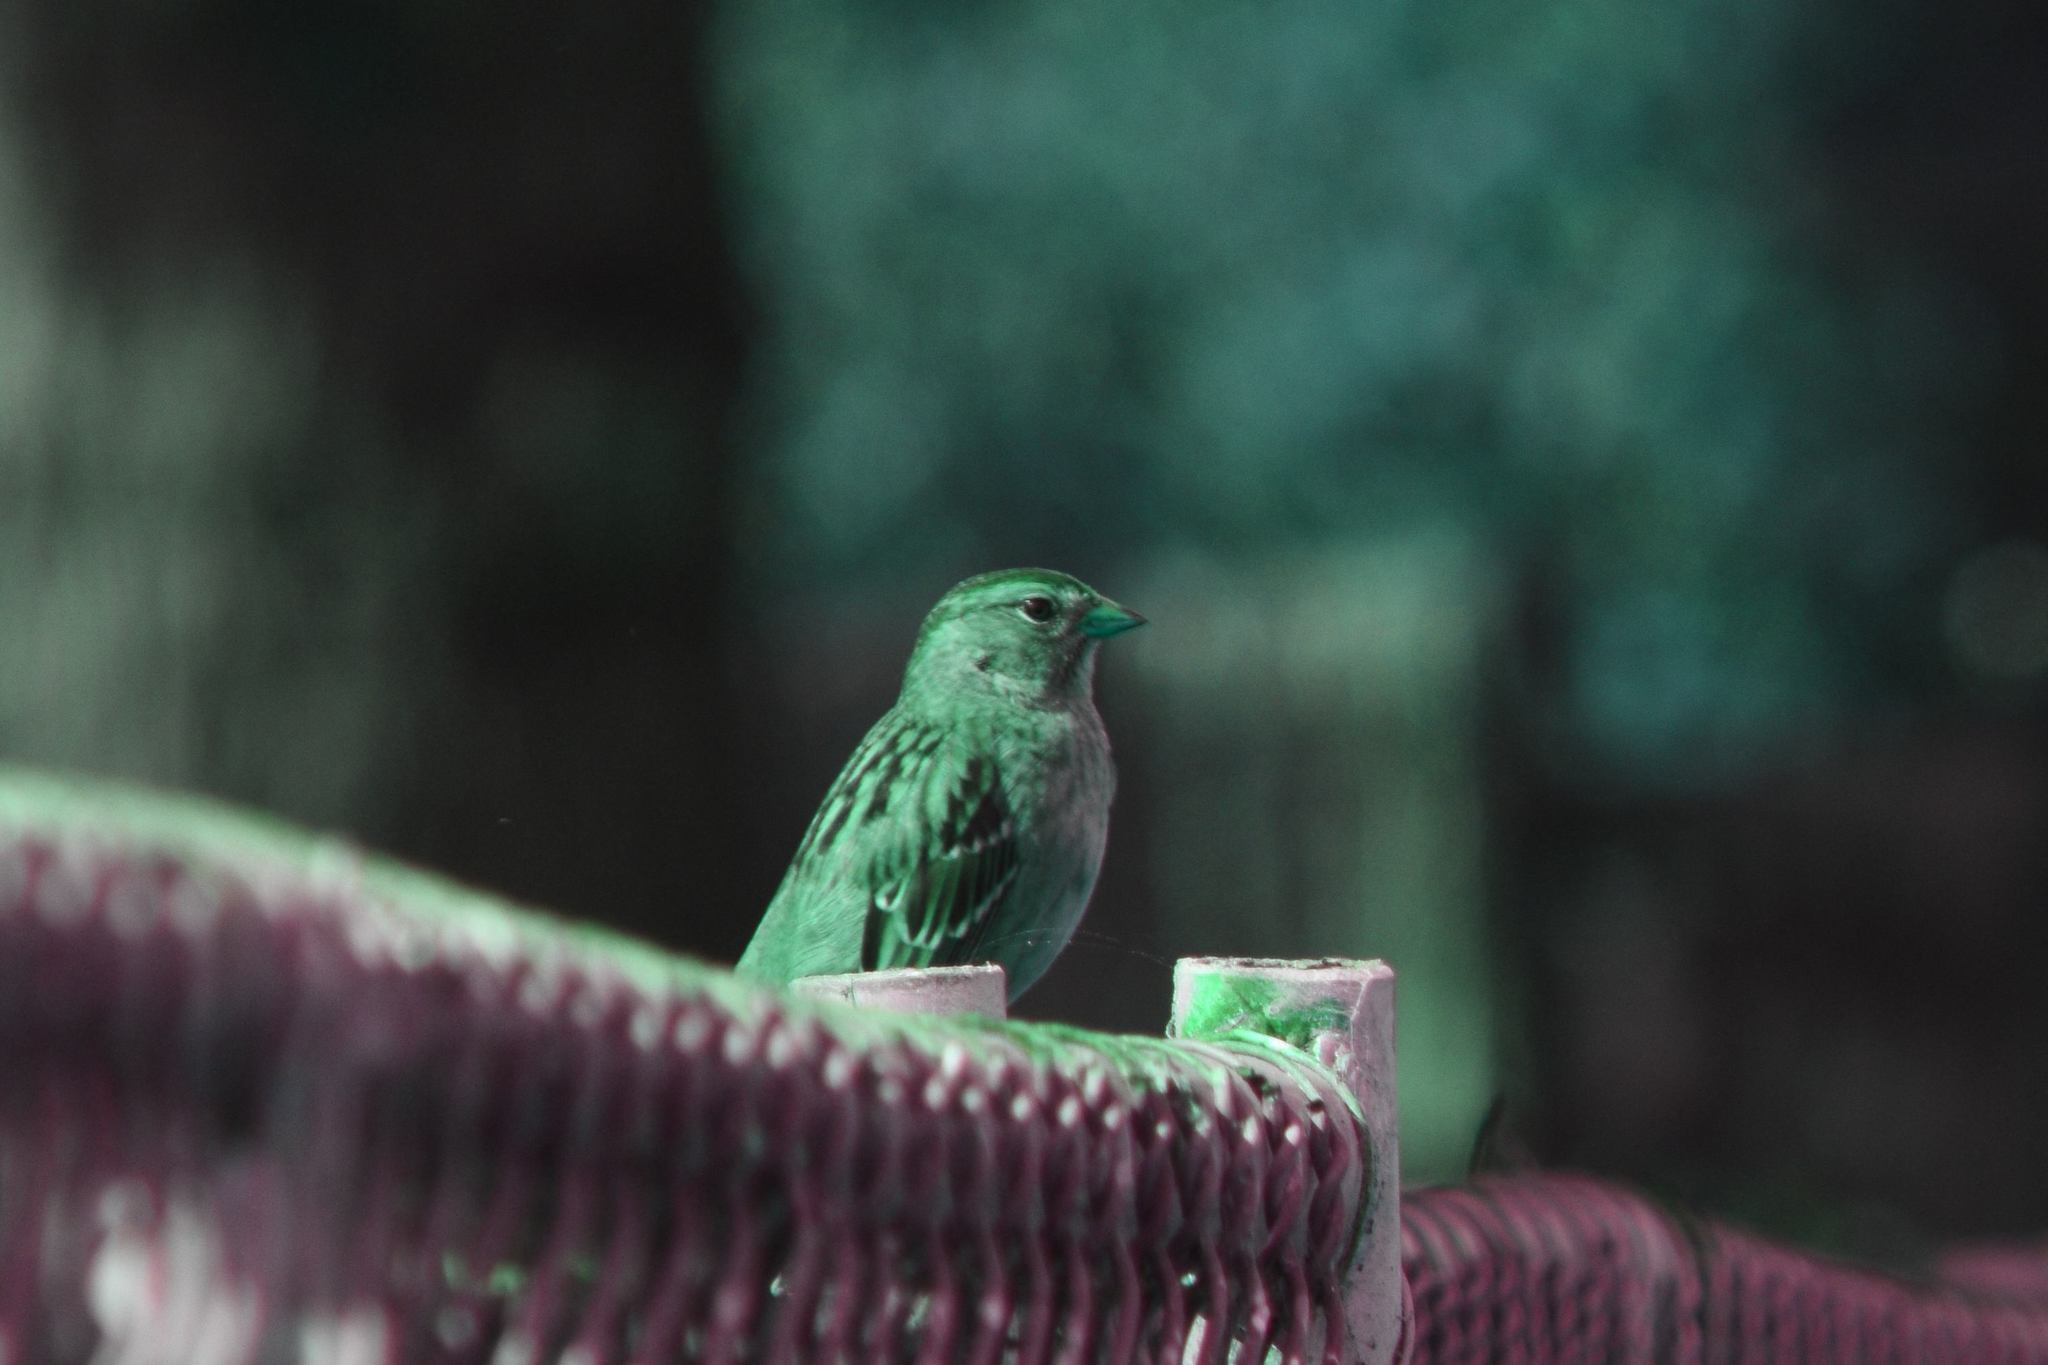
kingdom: Animalia
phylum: Chordata
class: Aves
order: Passeriformes
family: Passerellidae
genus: Zonotrichia
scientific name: Zonotrichia leucophrys
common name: White-crowned sparrow
